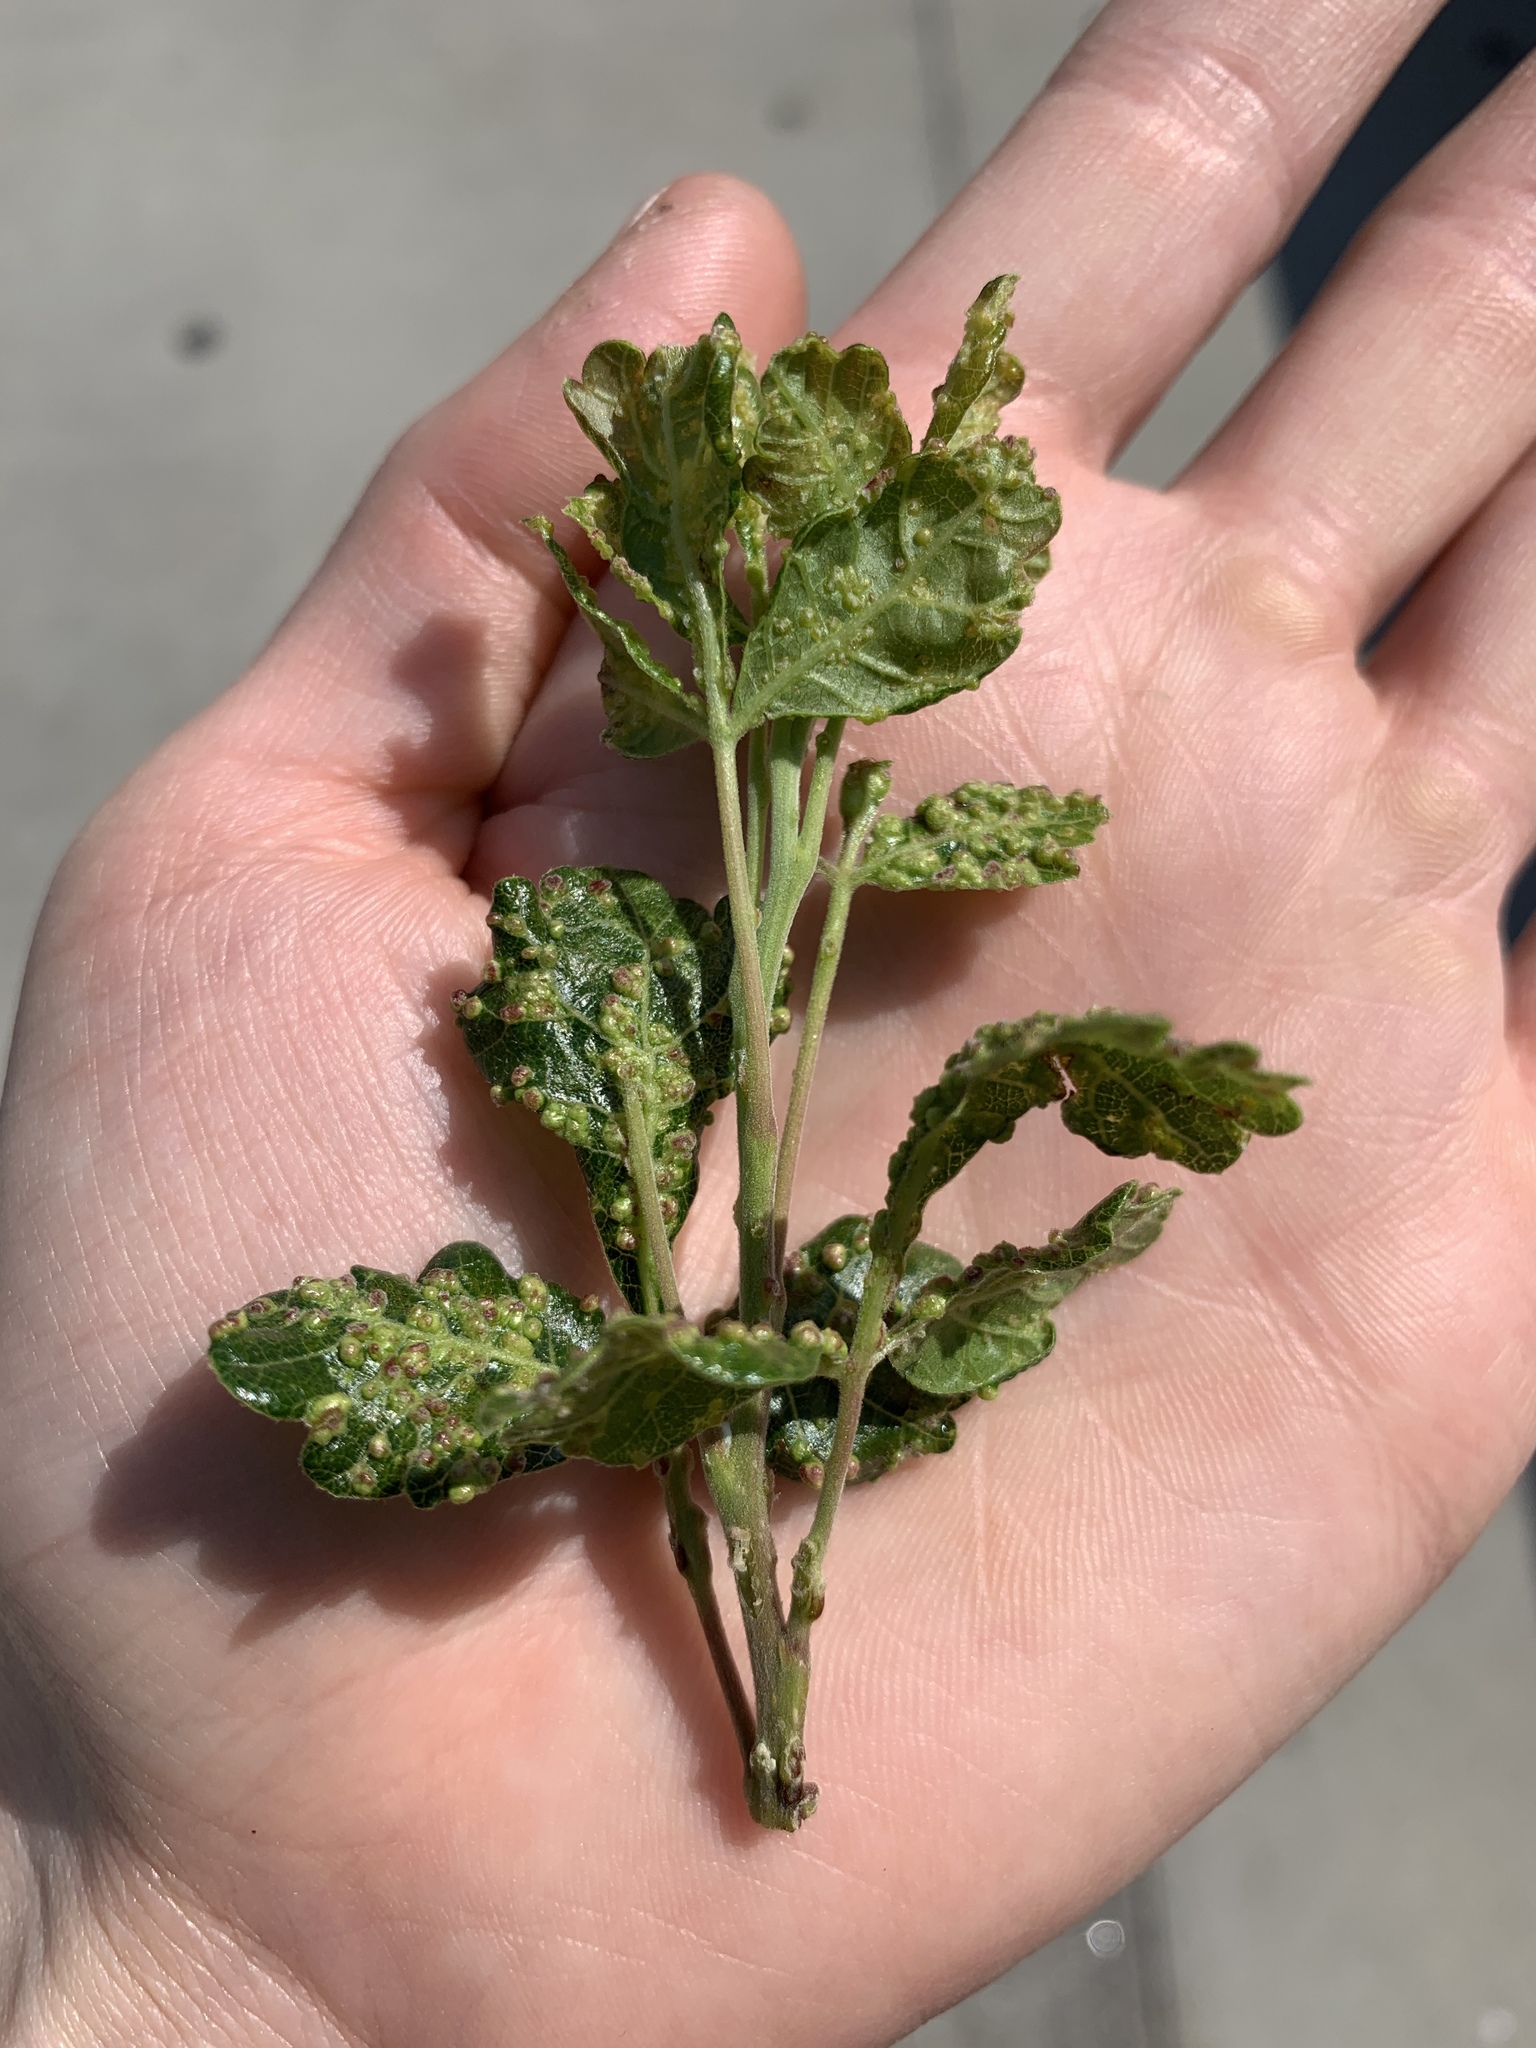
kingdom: Animalia
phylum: Arthropoda
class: Arachnida
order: Trombidiformes
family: Eriophyidae
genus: Aculops
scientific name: Aculops
